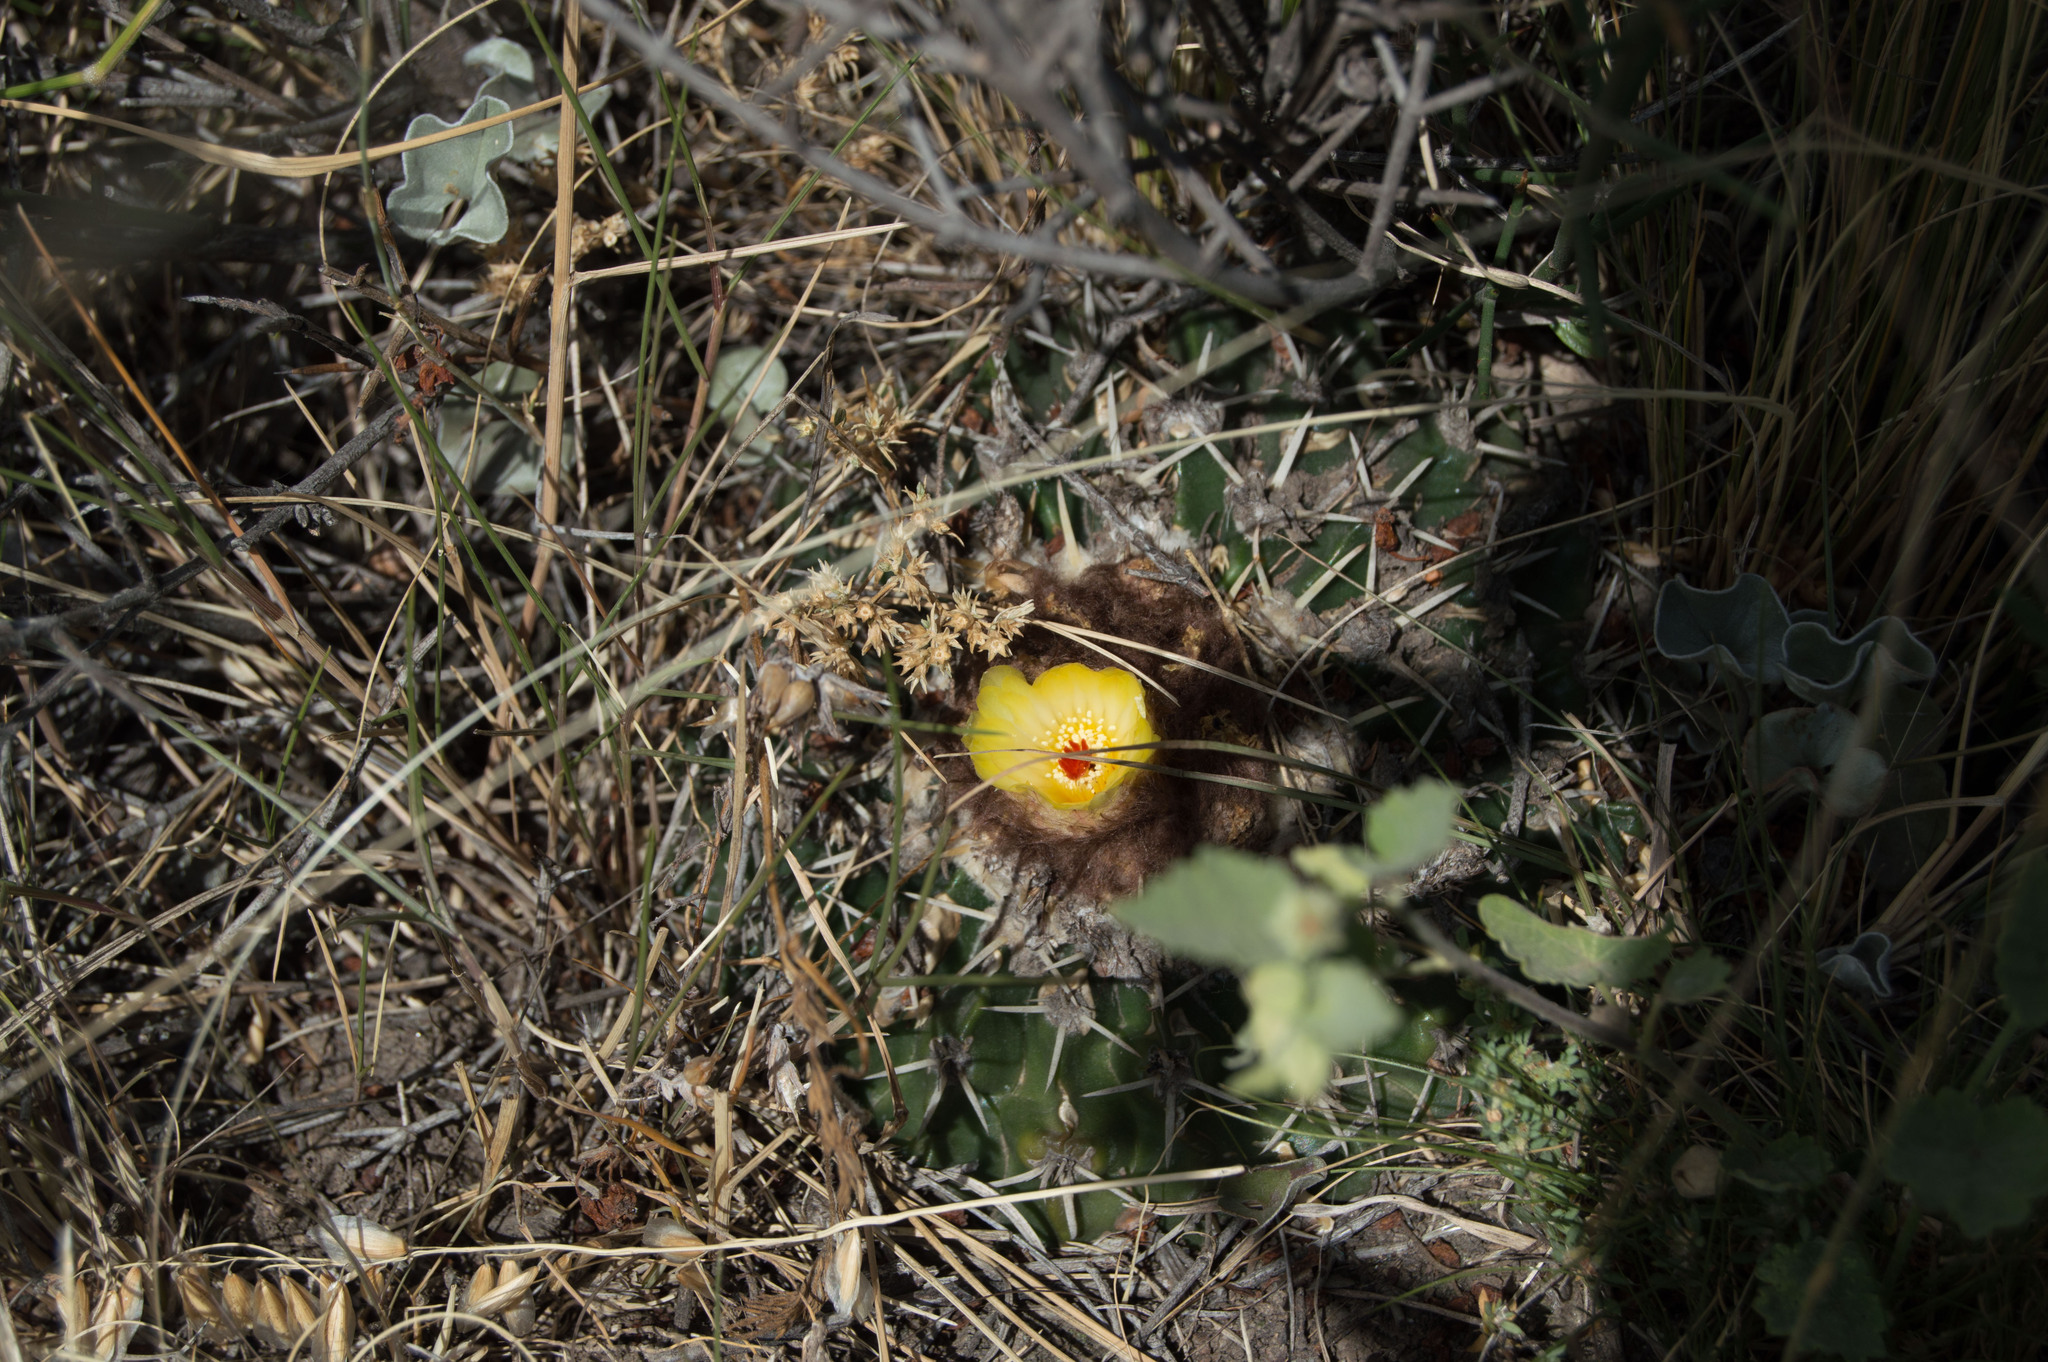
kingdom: Plantae
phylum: Tracheophyta
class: Magnoliopsida
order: Caryophyllales
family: Cactaceae
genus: Parodia
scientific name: Parodia erinacea
